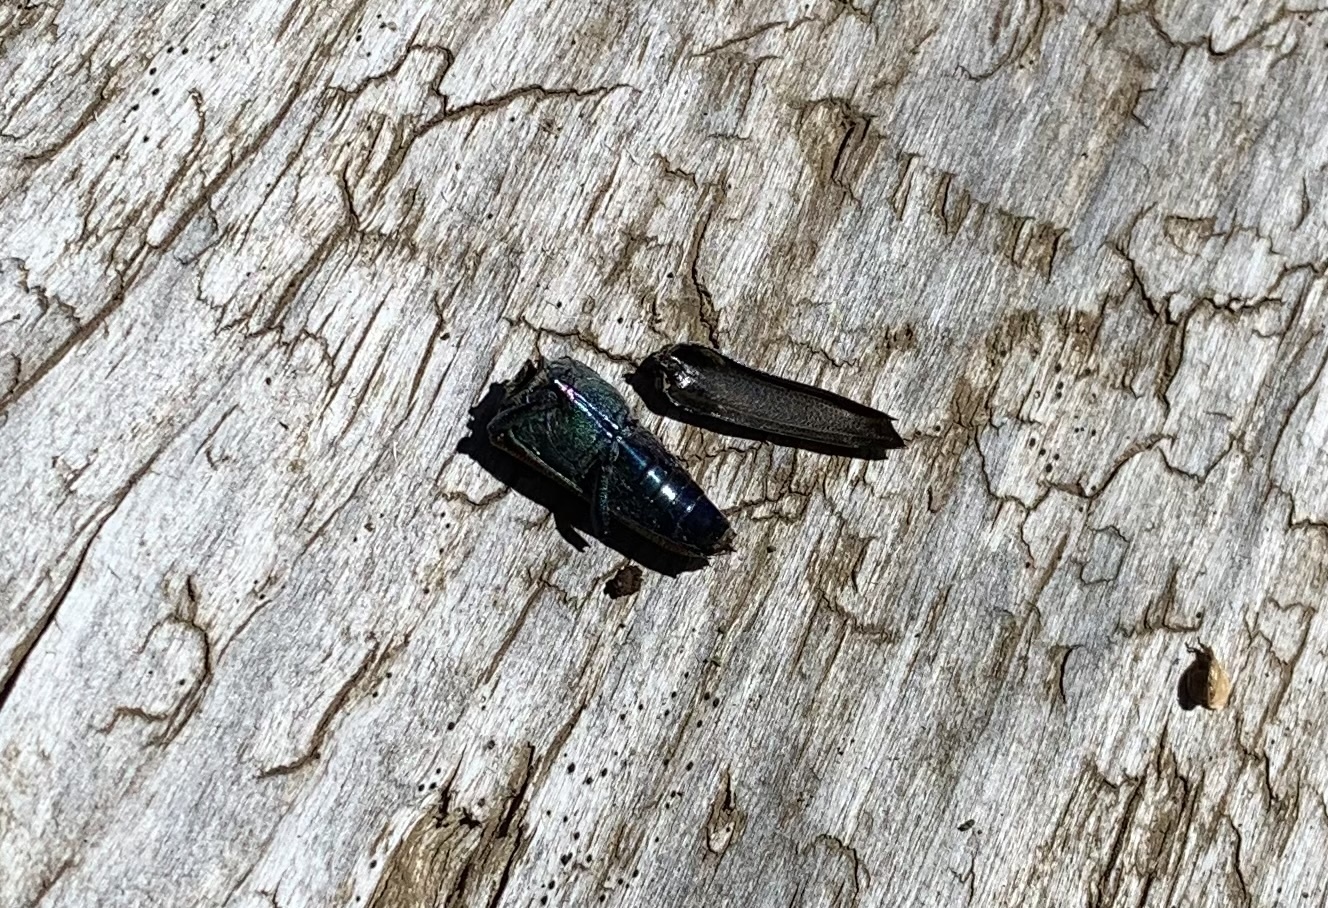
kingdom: Animalia
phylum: Arthropoda
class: Insecta
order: Coleoptera
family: Cerambycidae
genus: Oxypeltus
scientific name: Oxypeltus quadrispinosus
